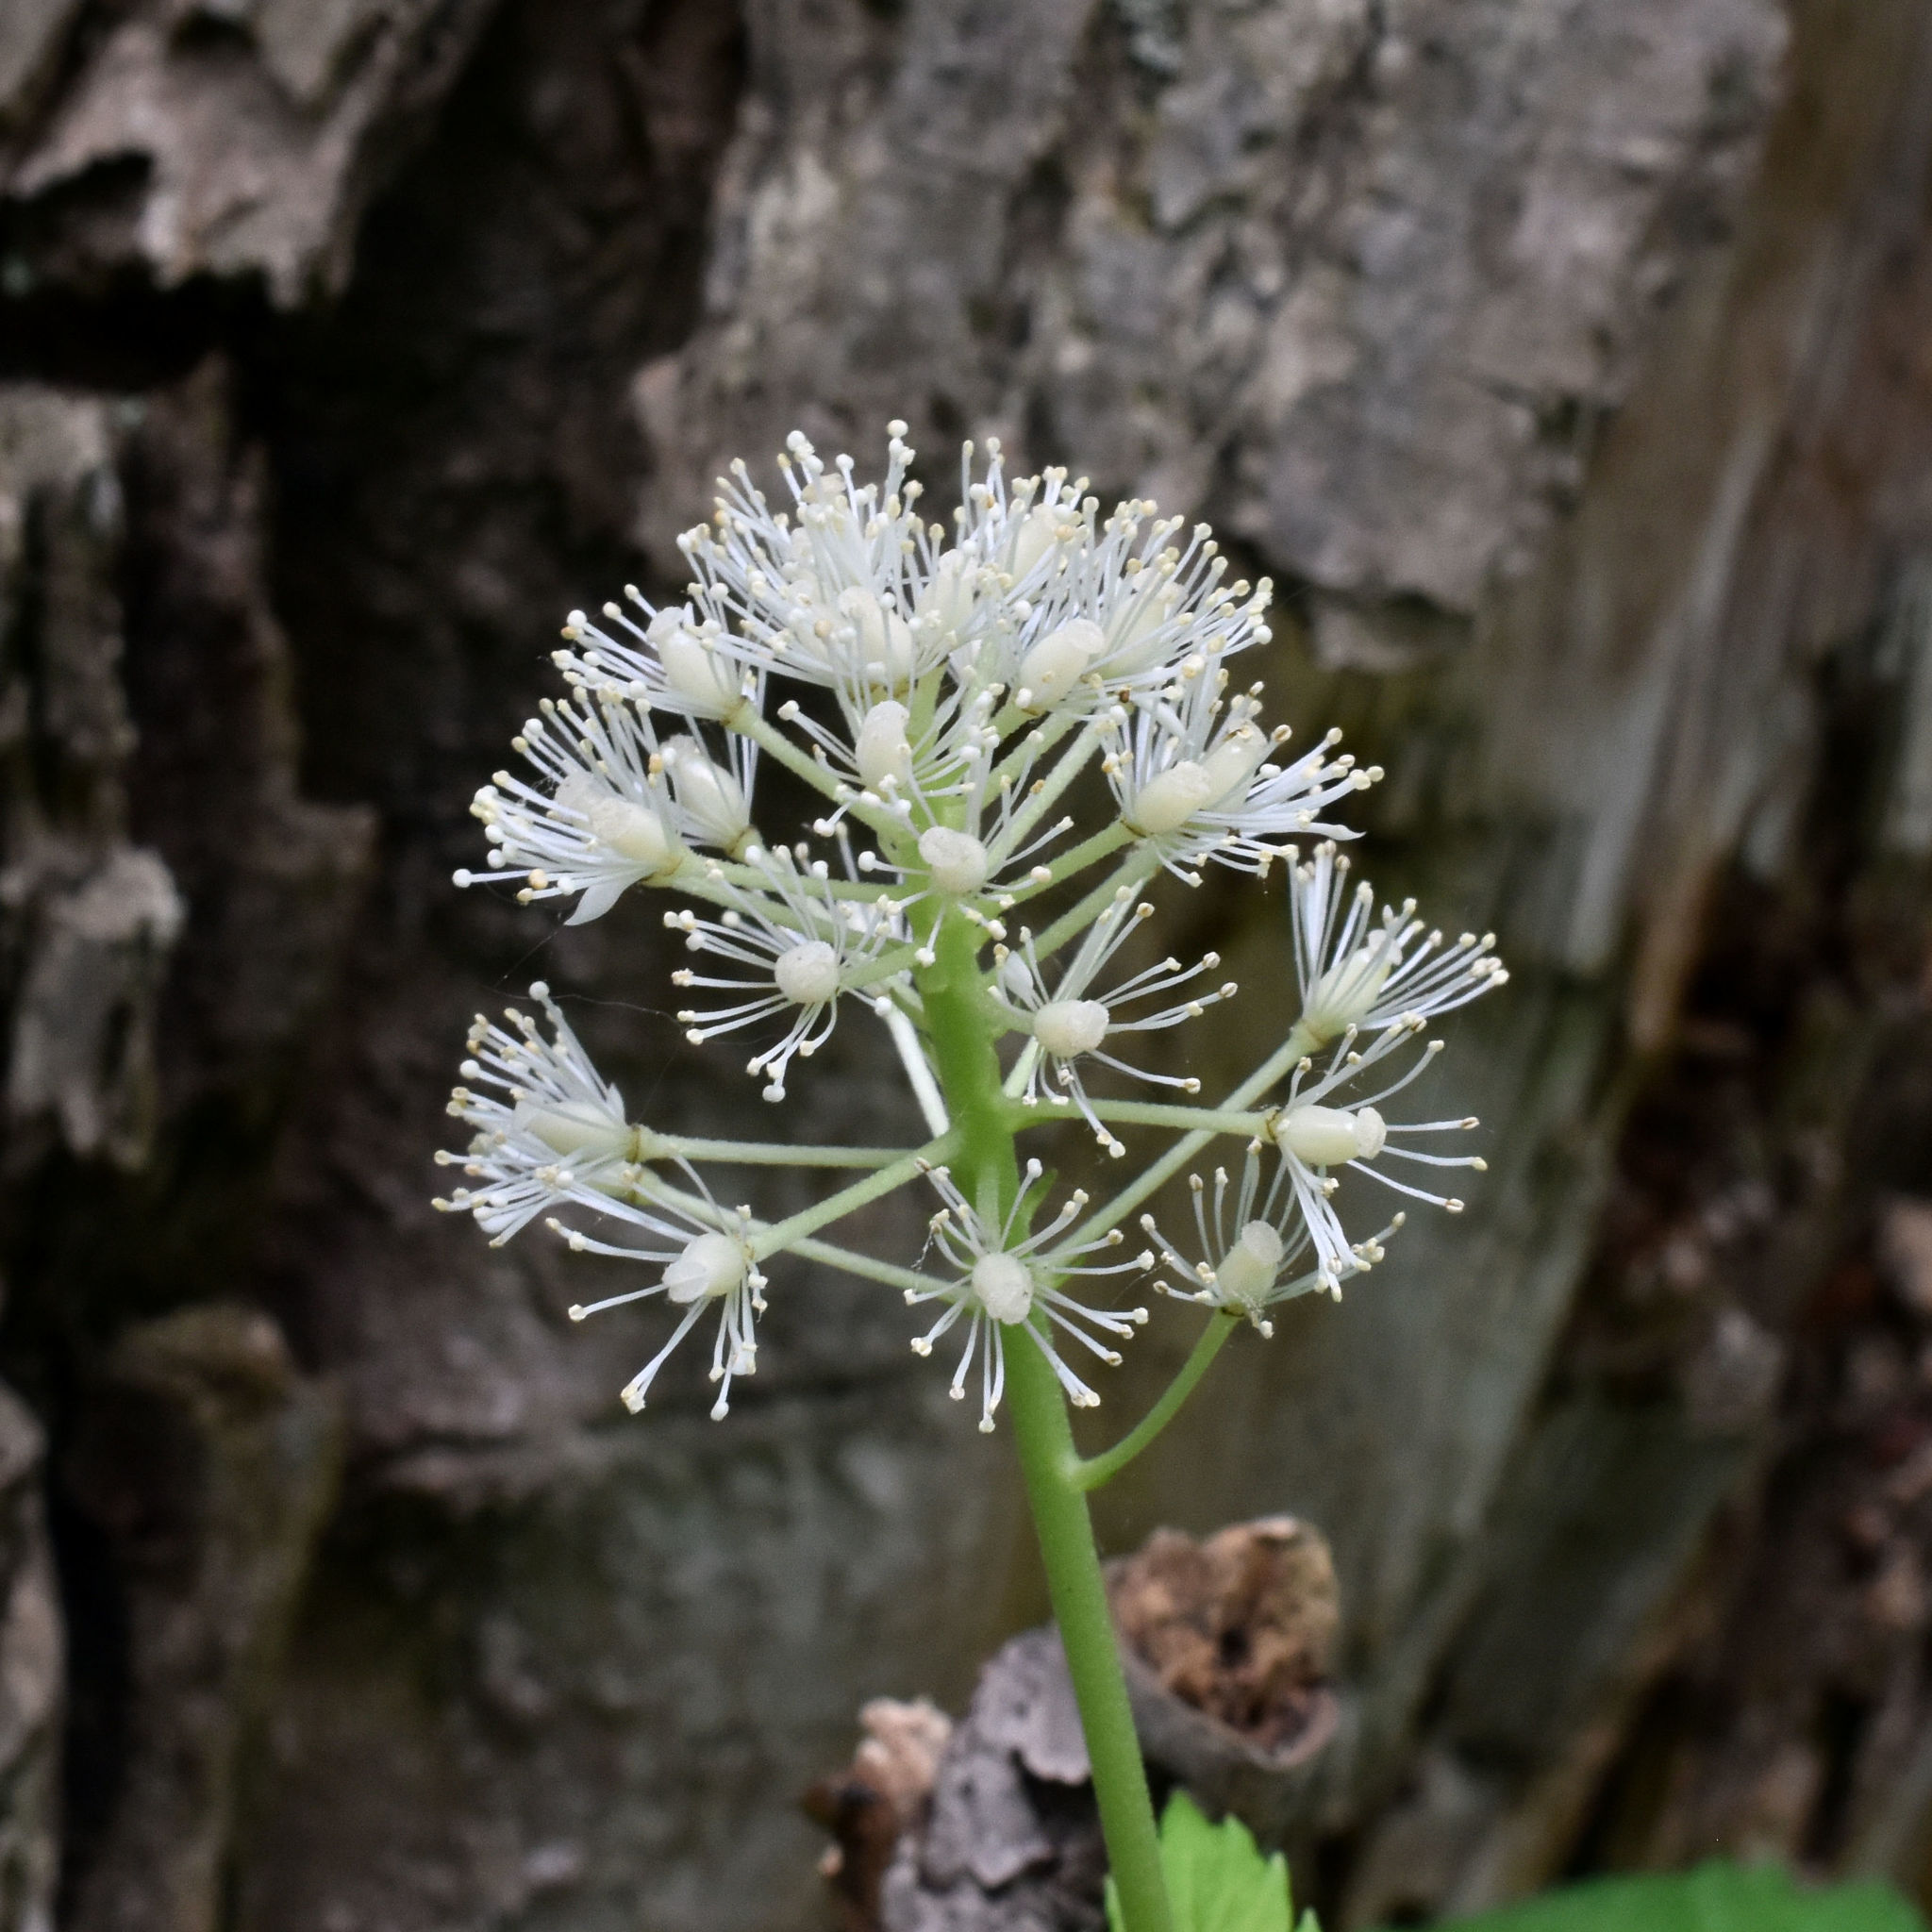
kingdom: Plantae
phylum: Tracheophyta
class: Magnoliopsida
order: Ranunculales
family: Ranunculaceae
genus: Actaea
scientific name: Actaea rubra
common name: Red baneberry
